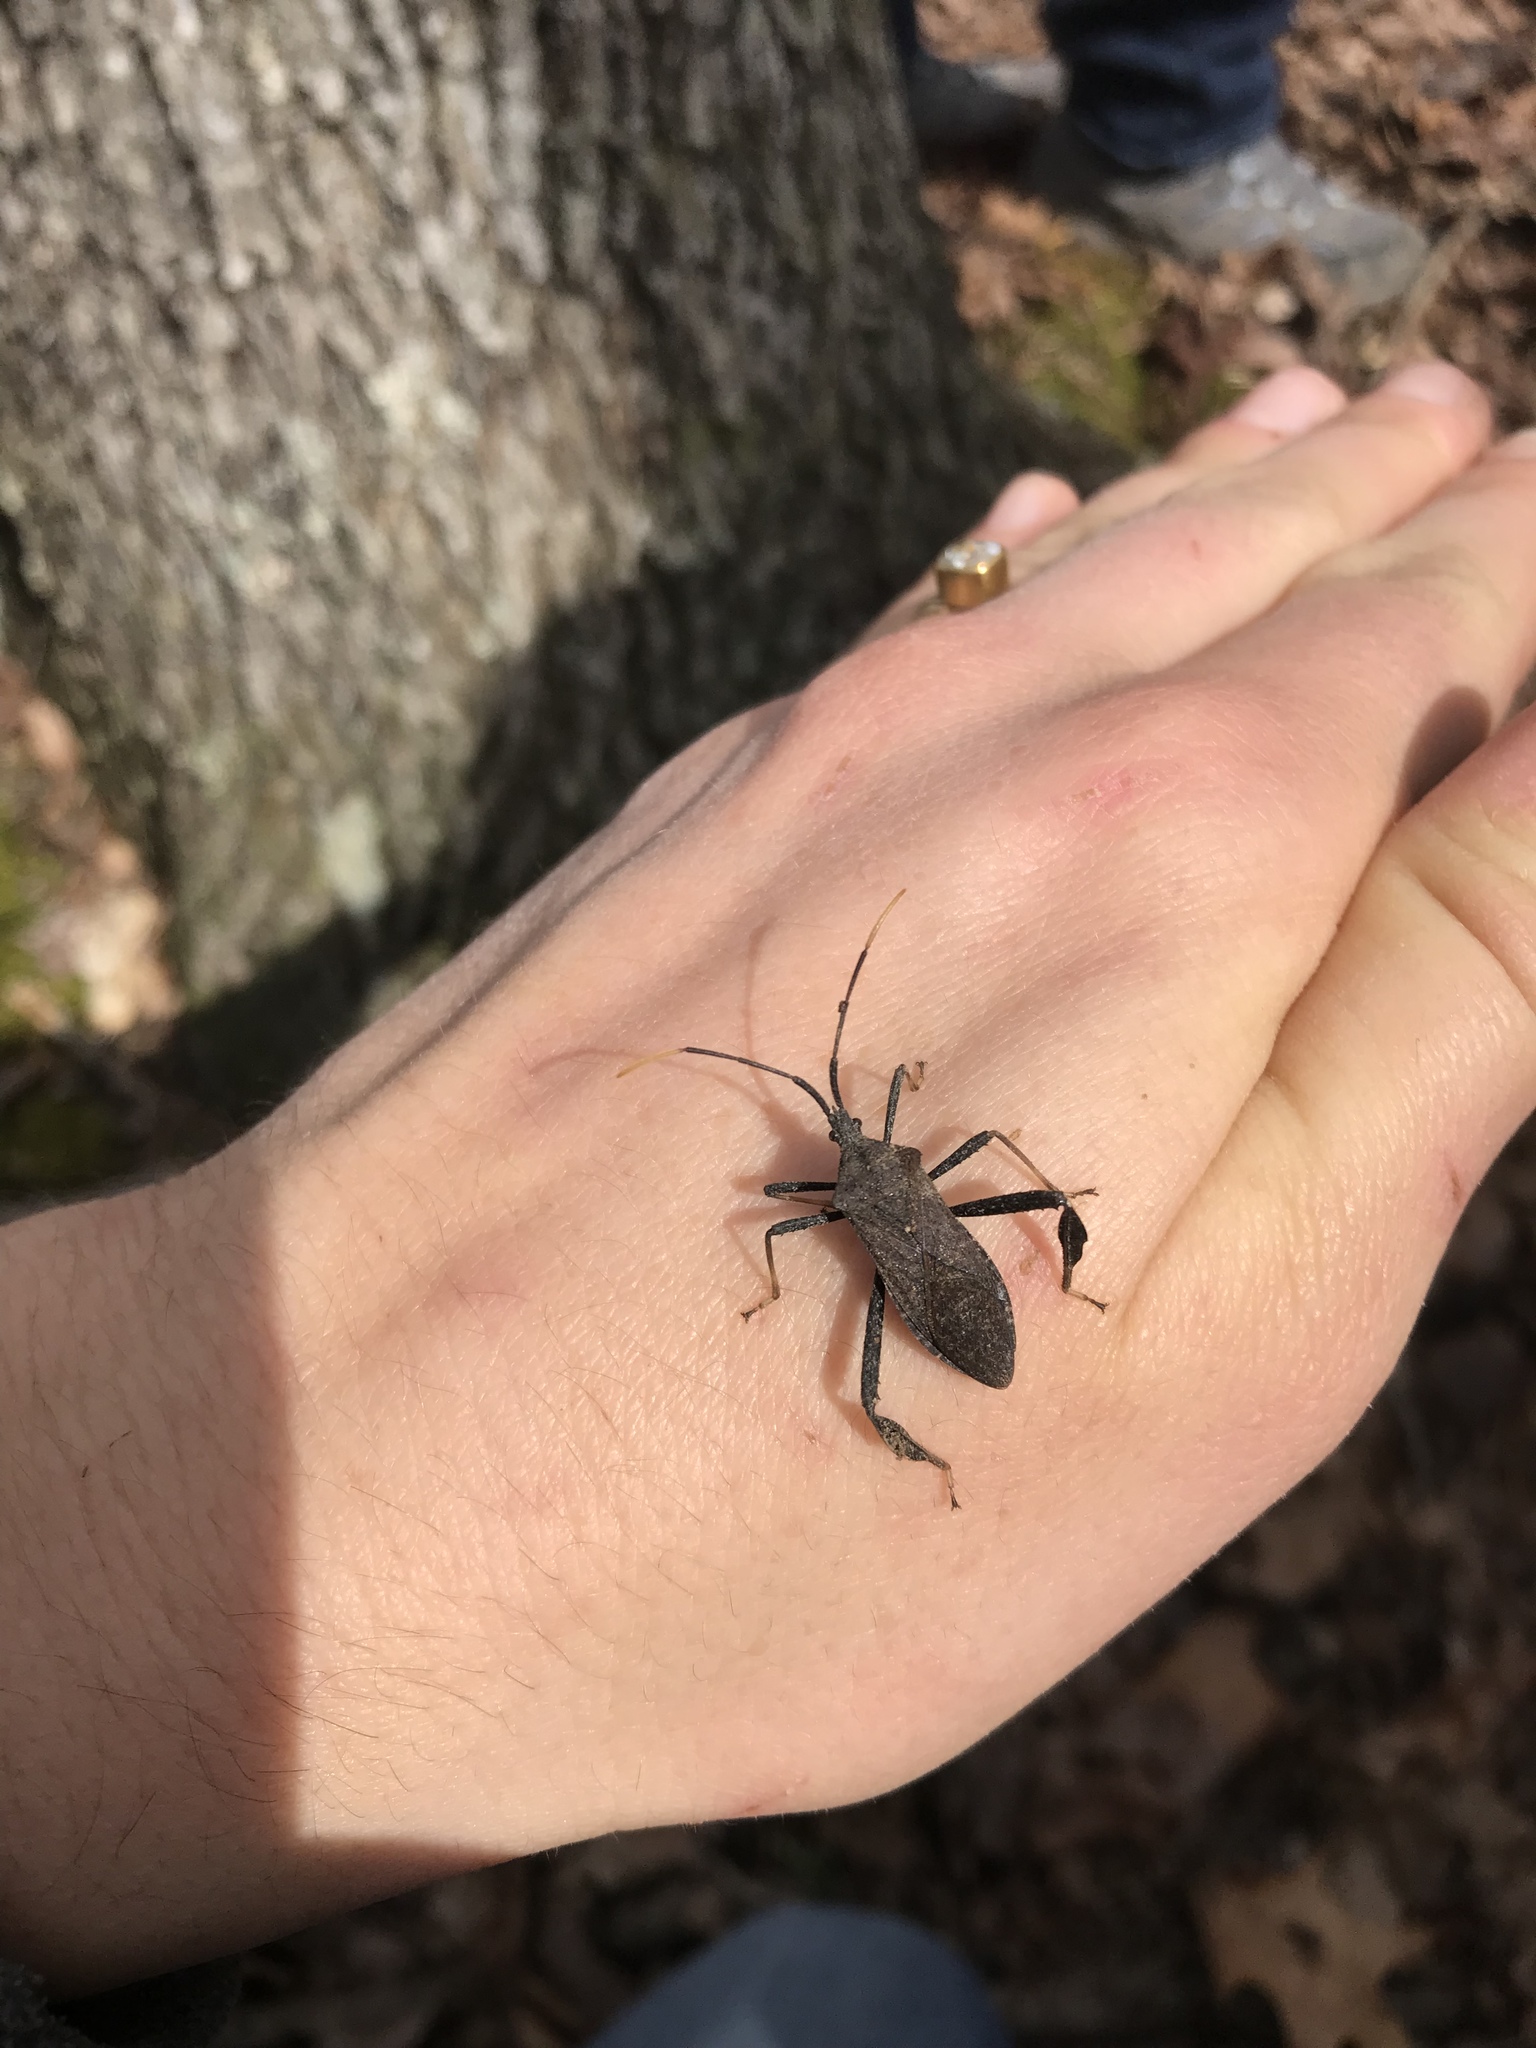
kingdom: Animalia
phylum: Arthropoda
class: Insecta
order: Hemiptera
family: Coreidae
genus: Acanthocephala
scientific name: Acanthocephala terminalis
